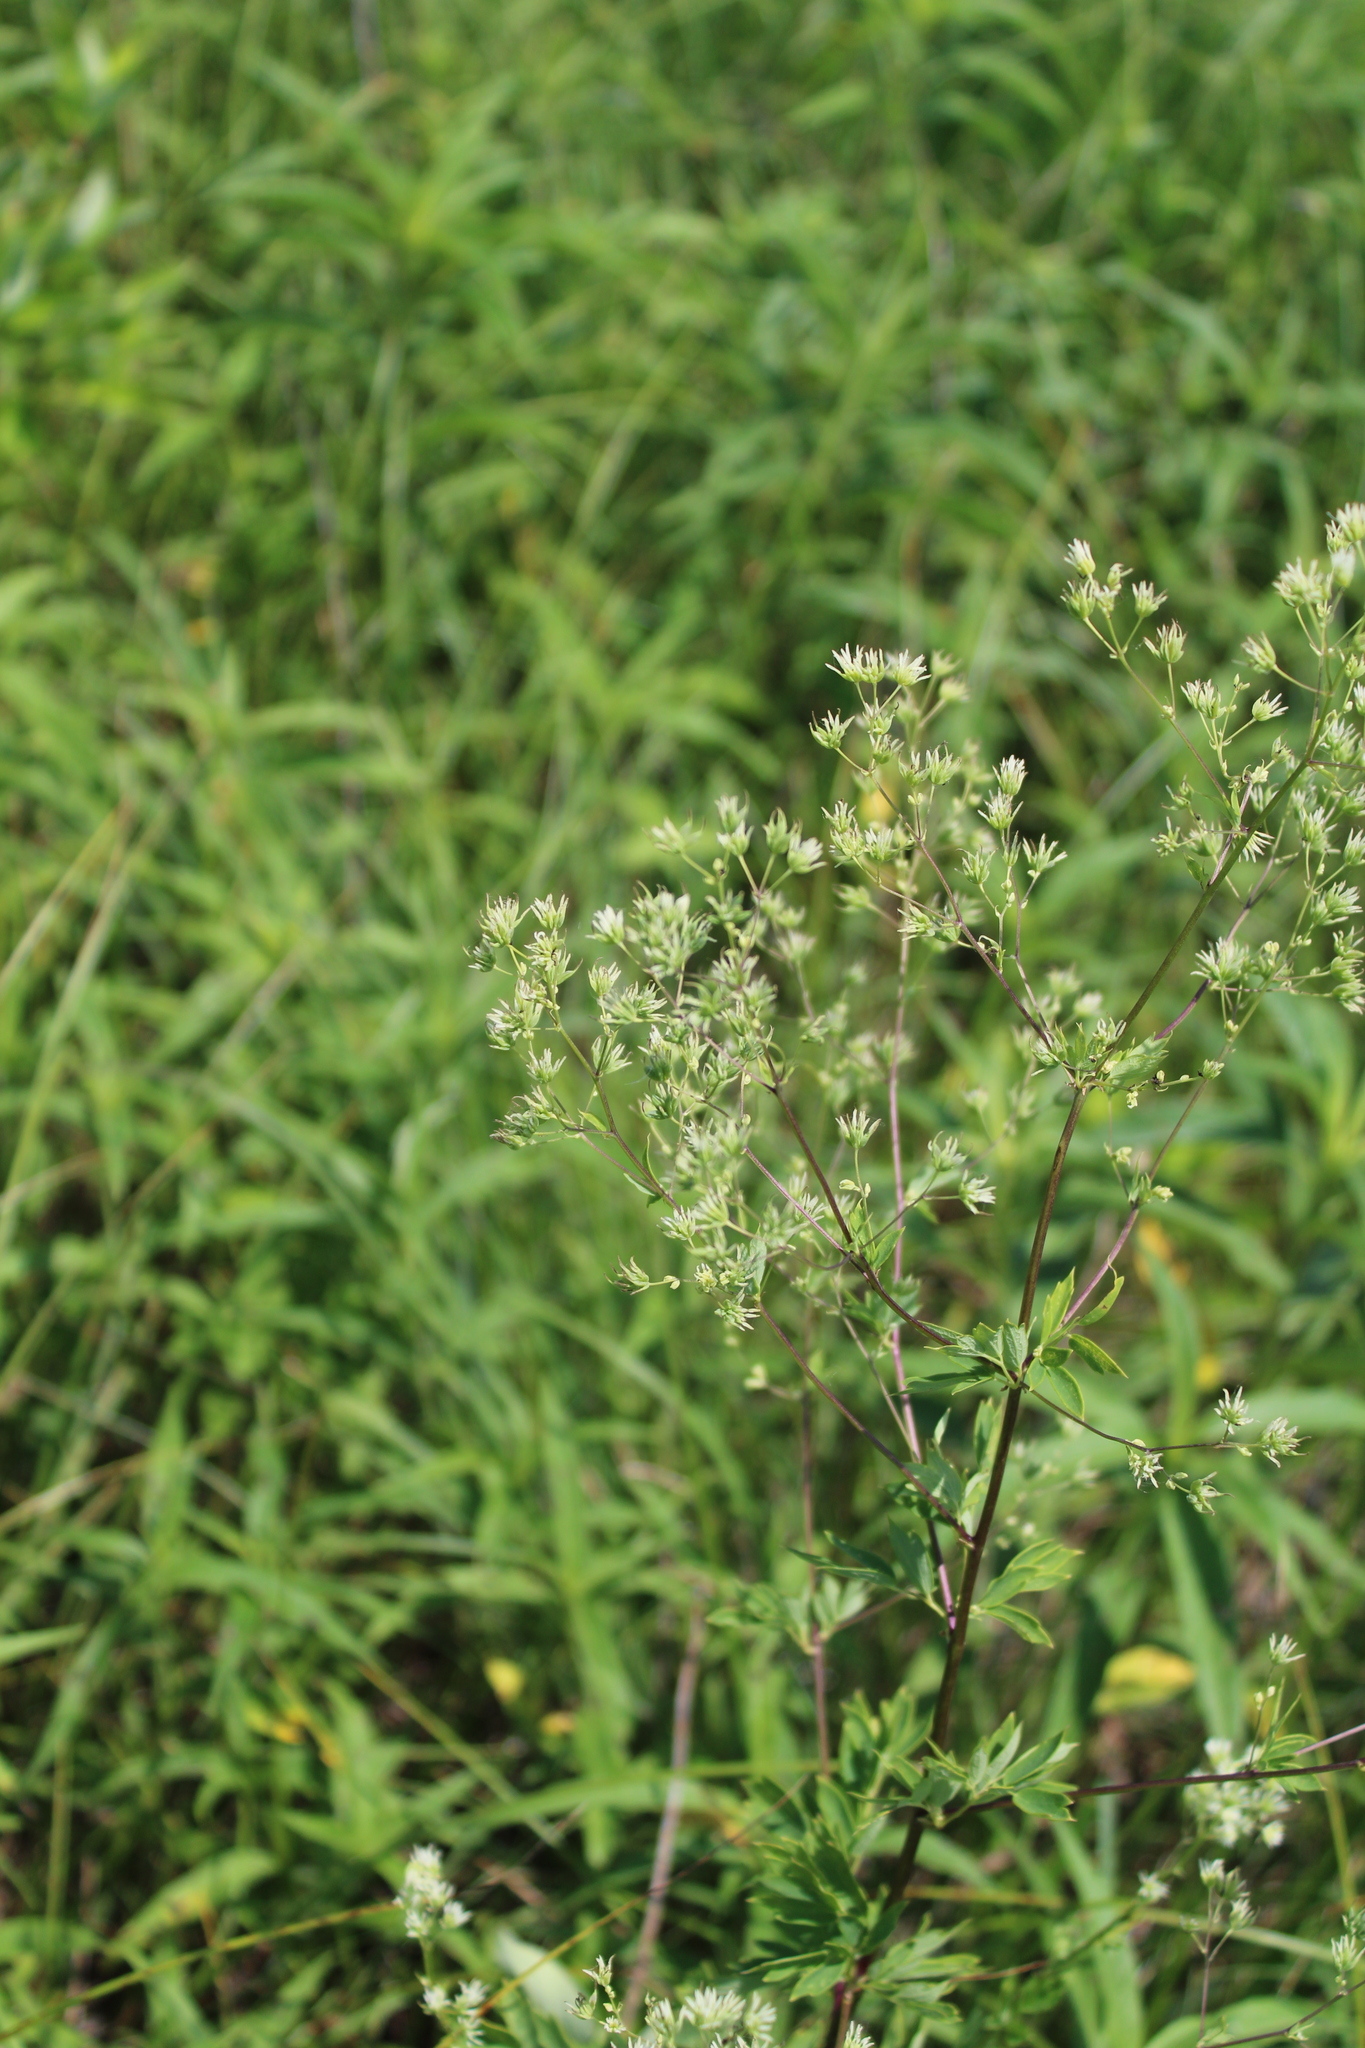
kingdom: Plantae
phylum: Tracheophyta
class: Magnoliopsida
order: Ranunculales
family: Ranunculaceae
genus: Thalictrum
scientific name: Thalictrum dasycarpum
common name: Purple meadow-rue
